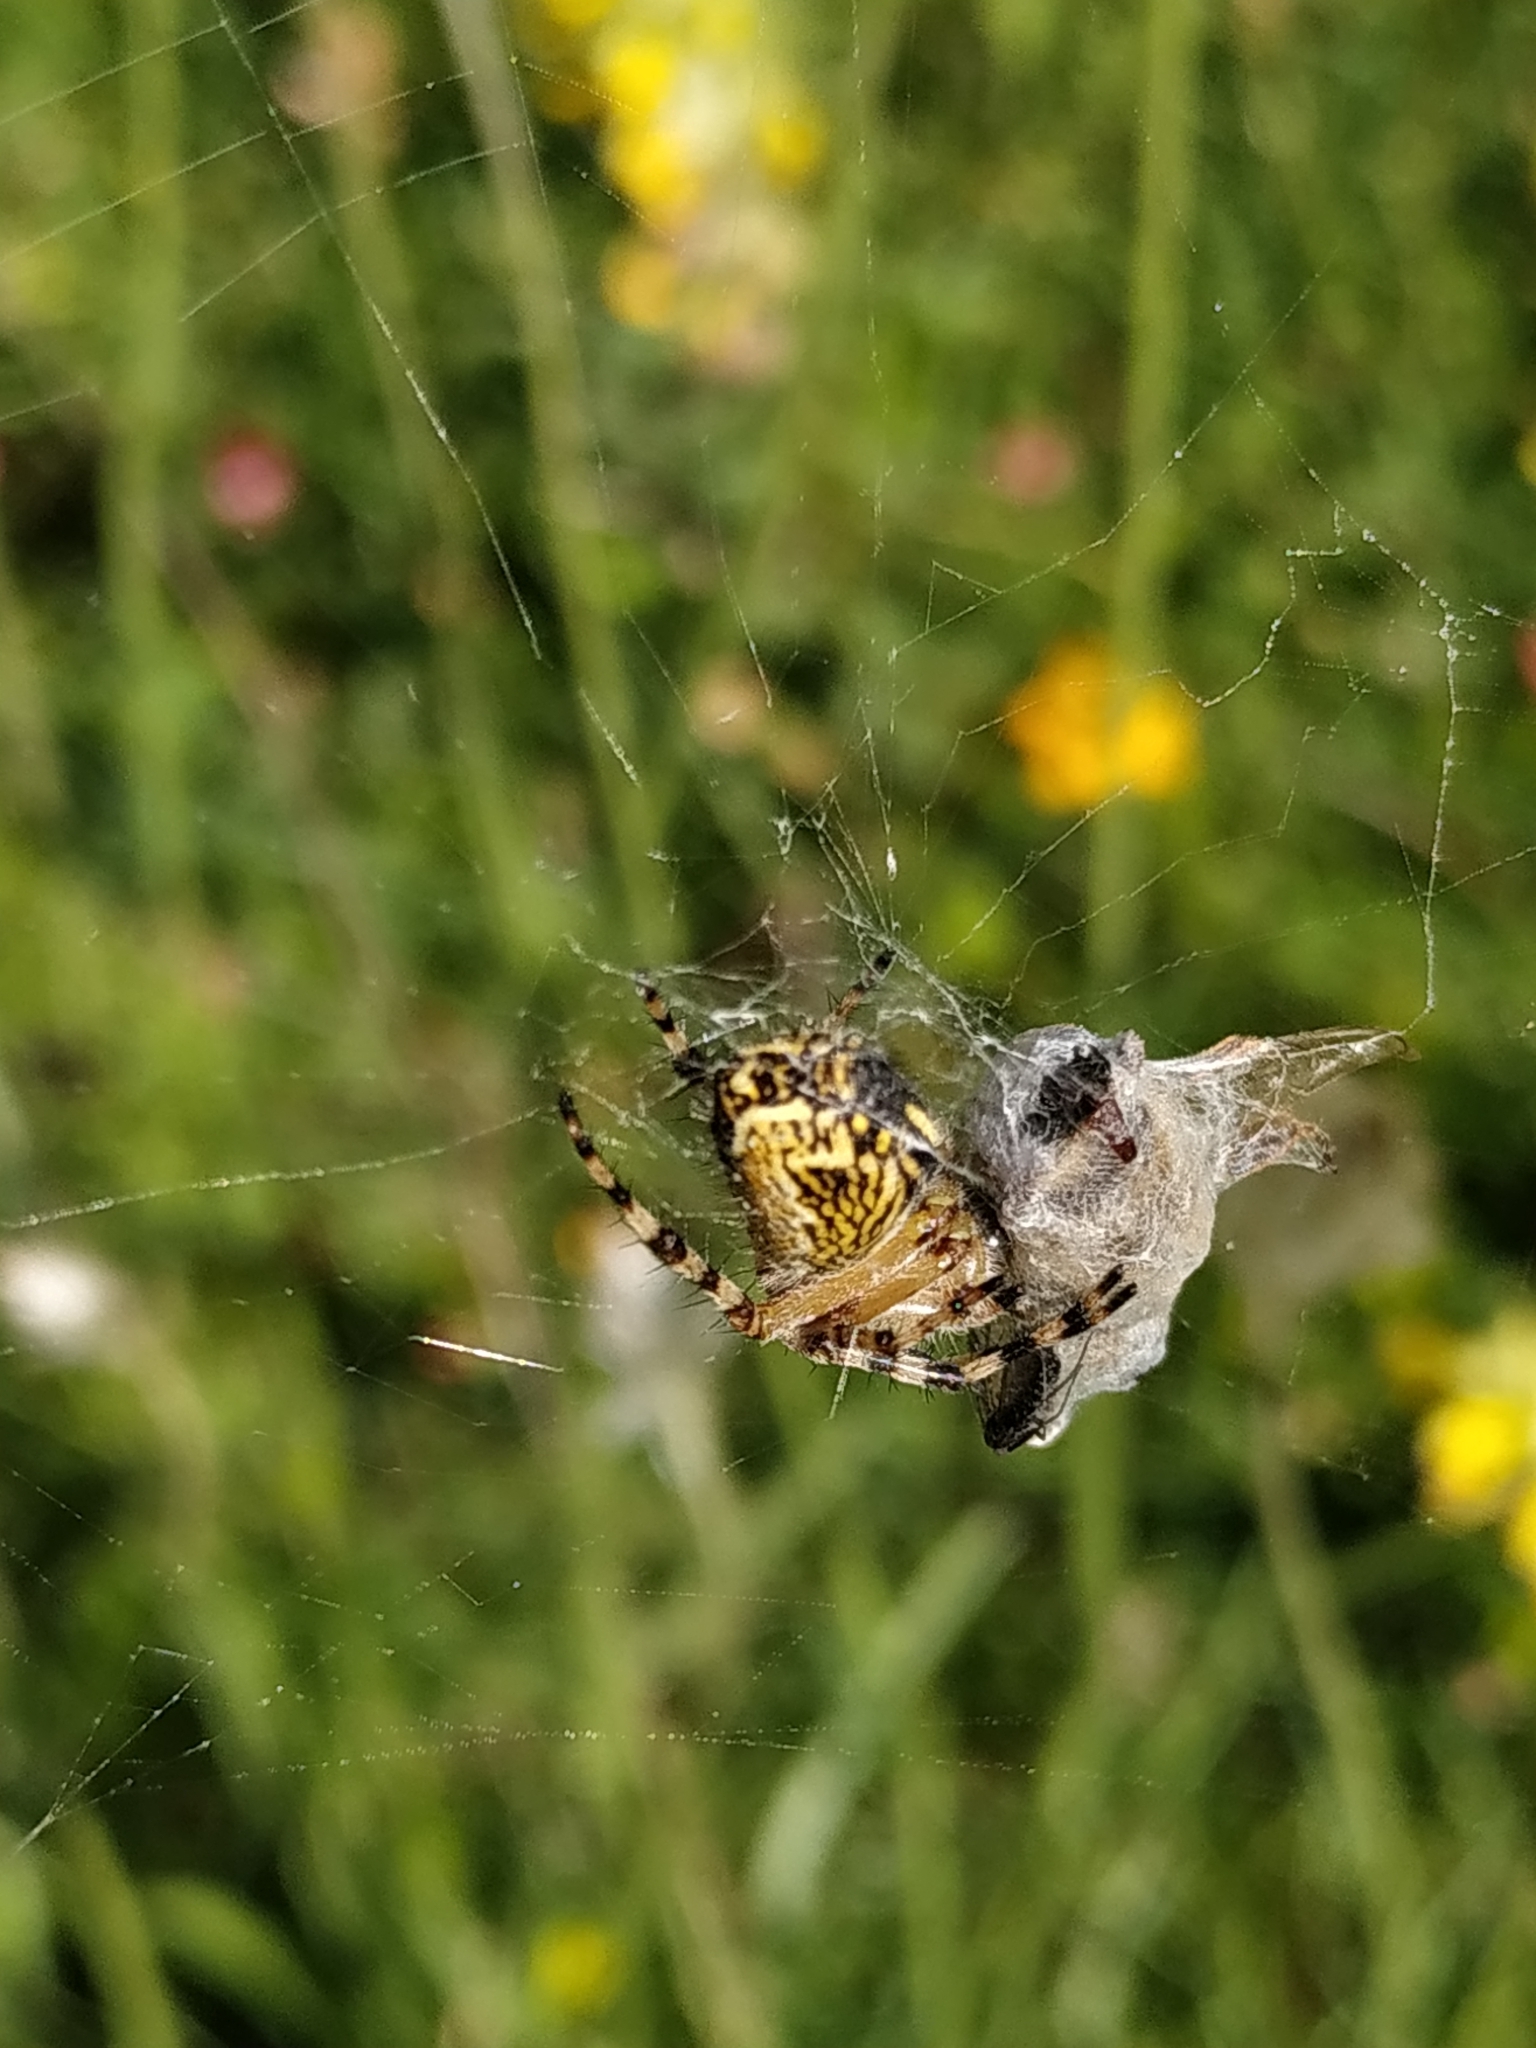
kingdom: Animalia
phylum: Arthropoda
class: Arachnida
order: Araneae
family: Araneidae
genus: Aculepeira
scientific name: Aculepeira ceropegia
